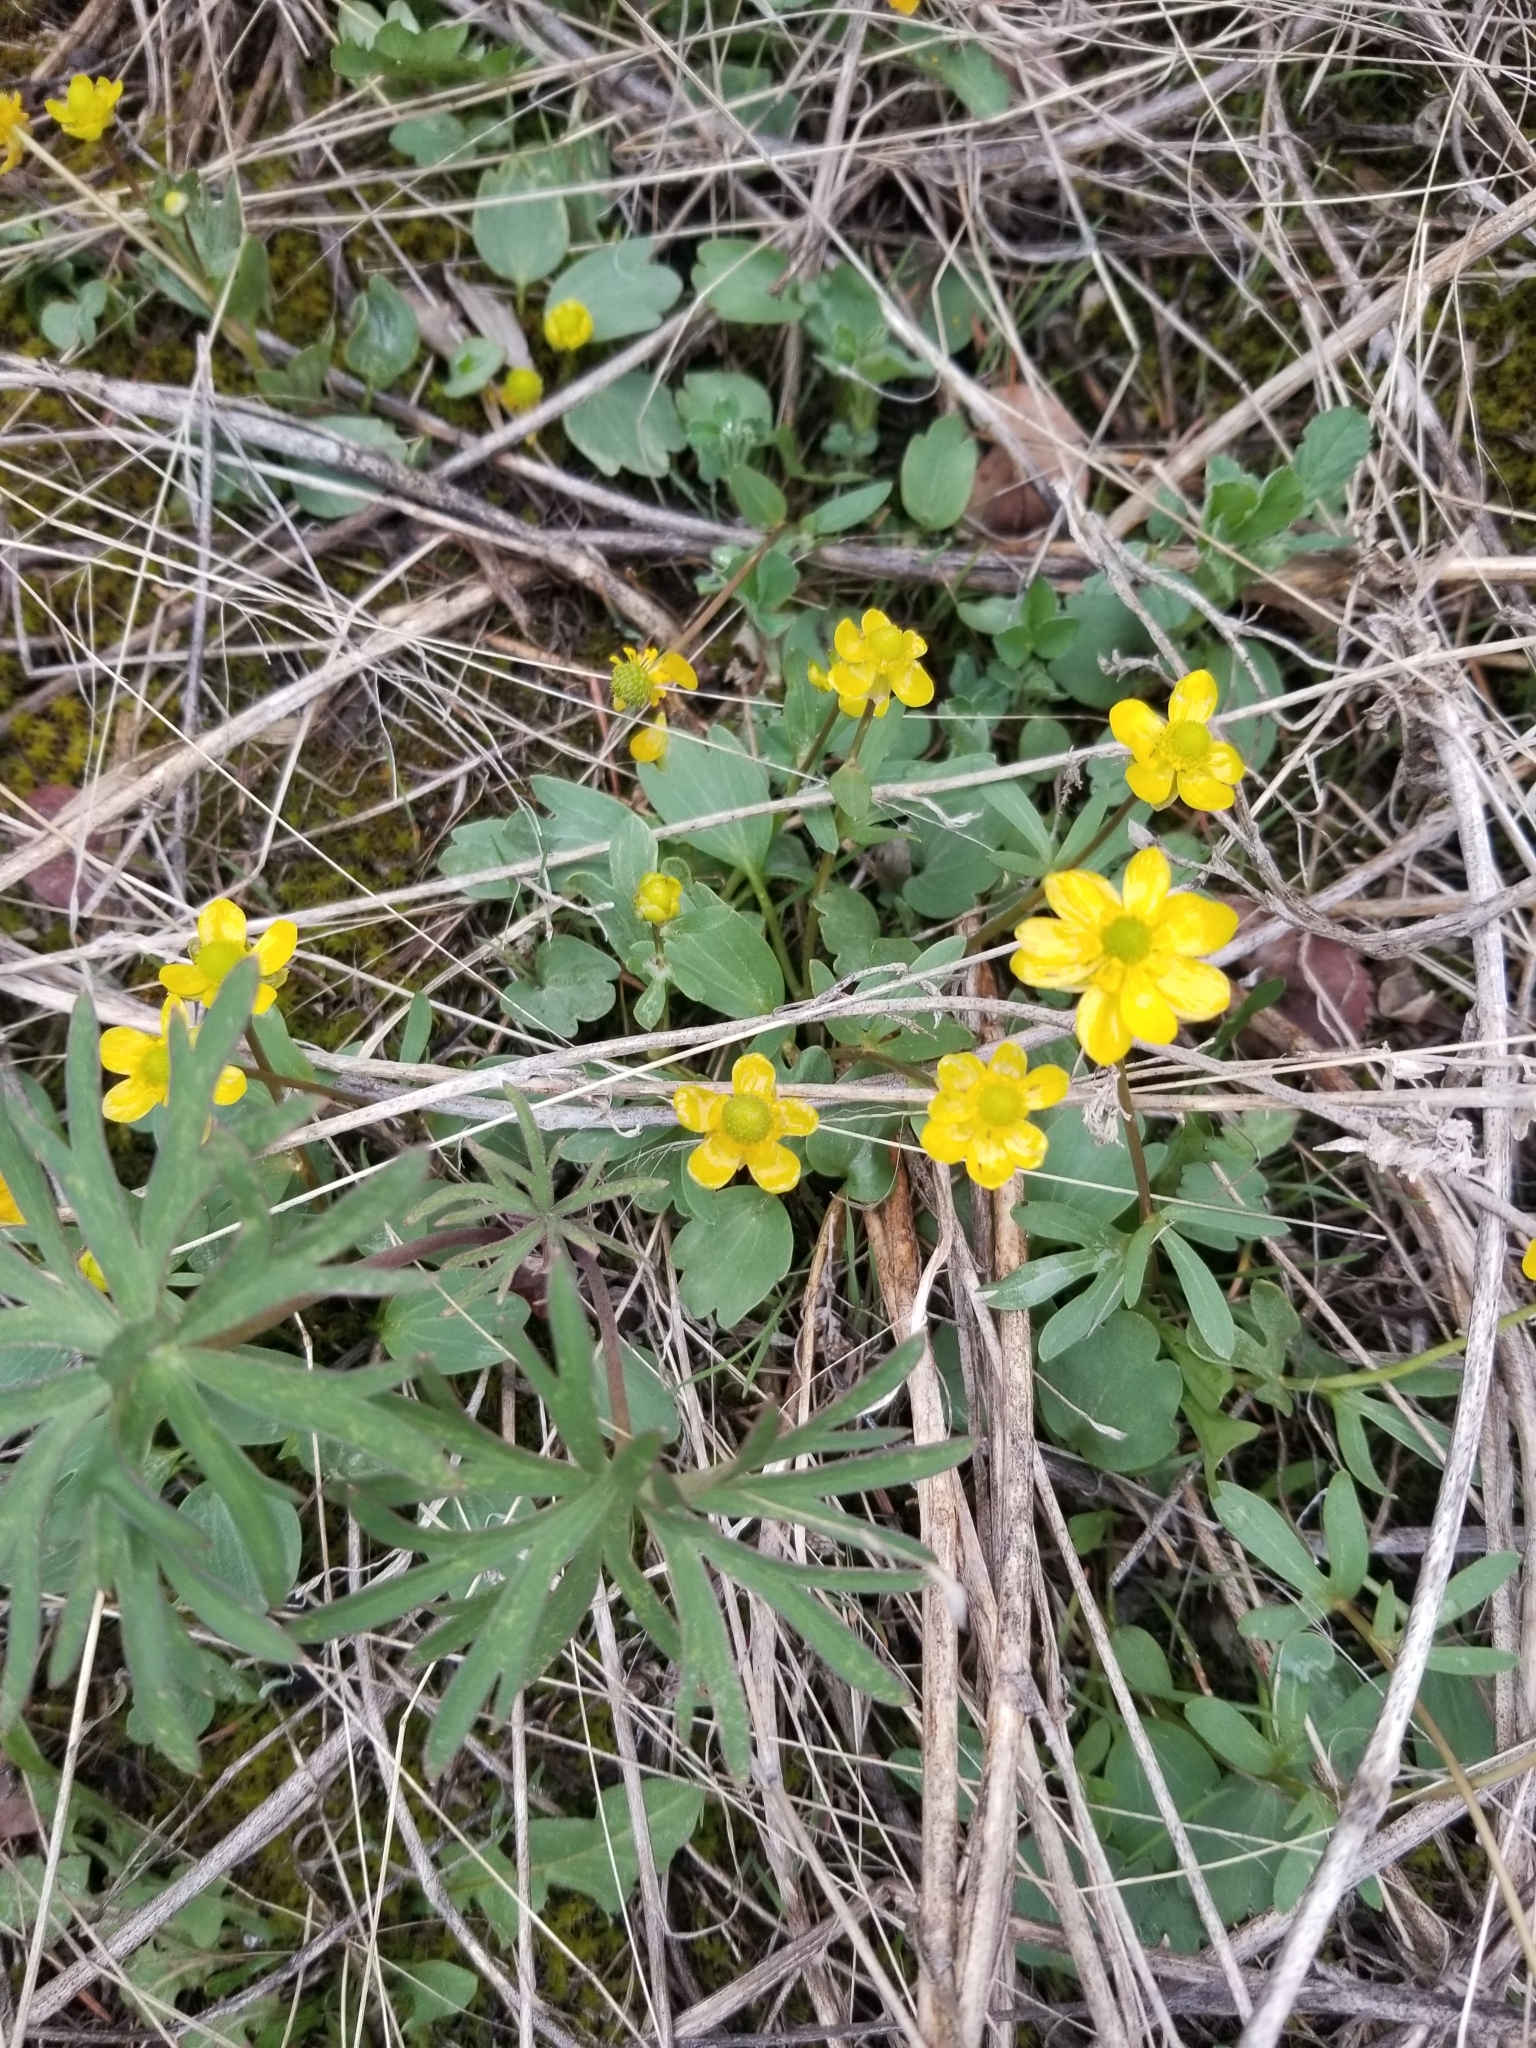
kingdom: Plantae
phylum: Tracheophyta
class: Magnoliopsida
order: Ranunculales
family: Ranunculaceae
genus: Ranunculus
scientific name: Ranunculus glaberrimus
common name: Sagebrush buttercup
